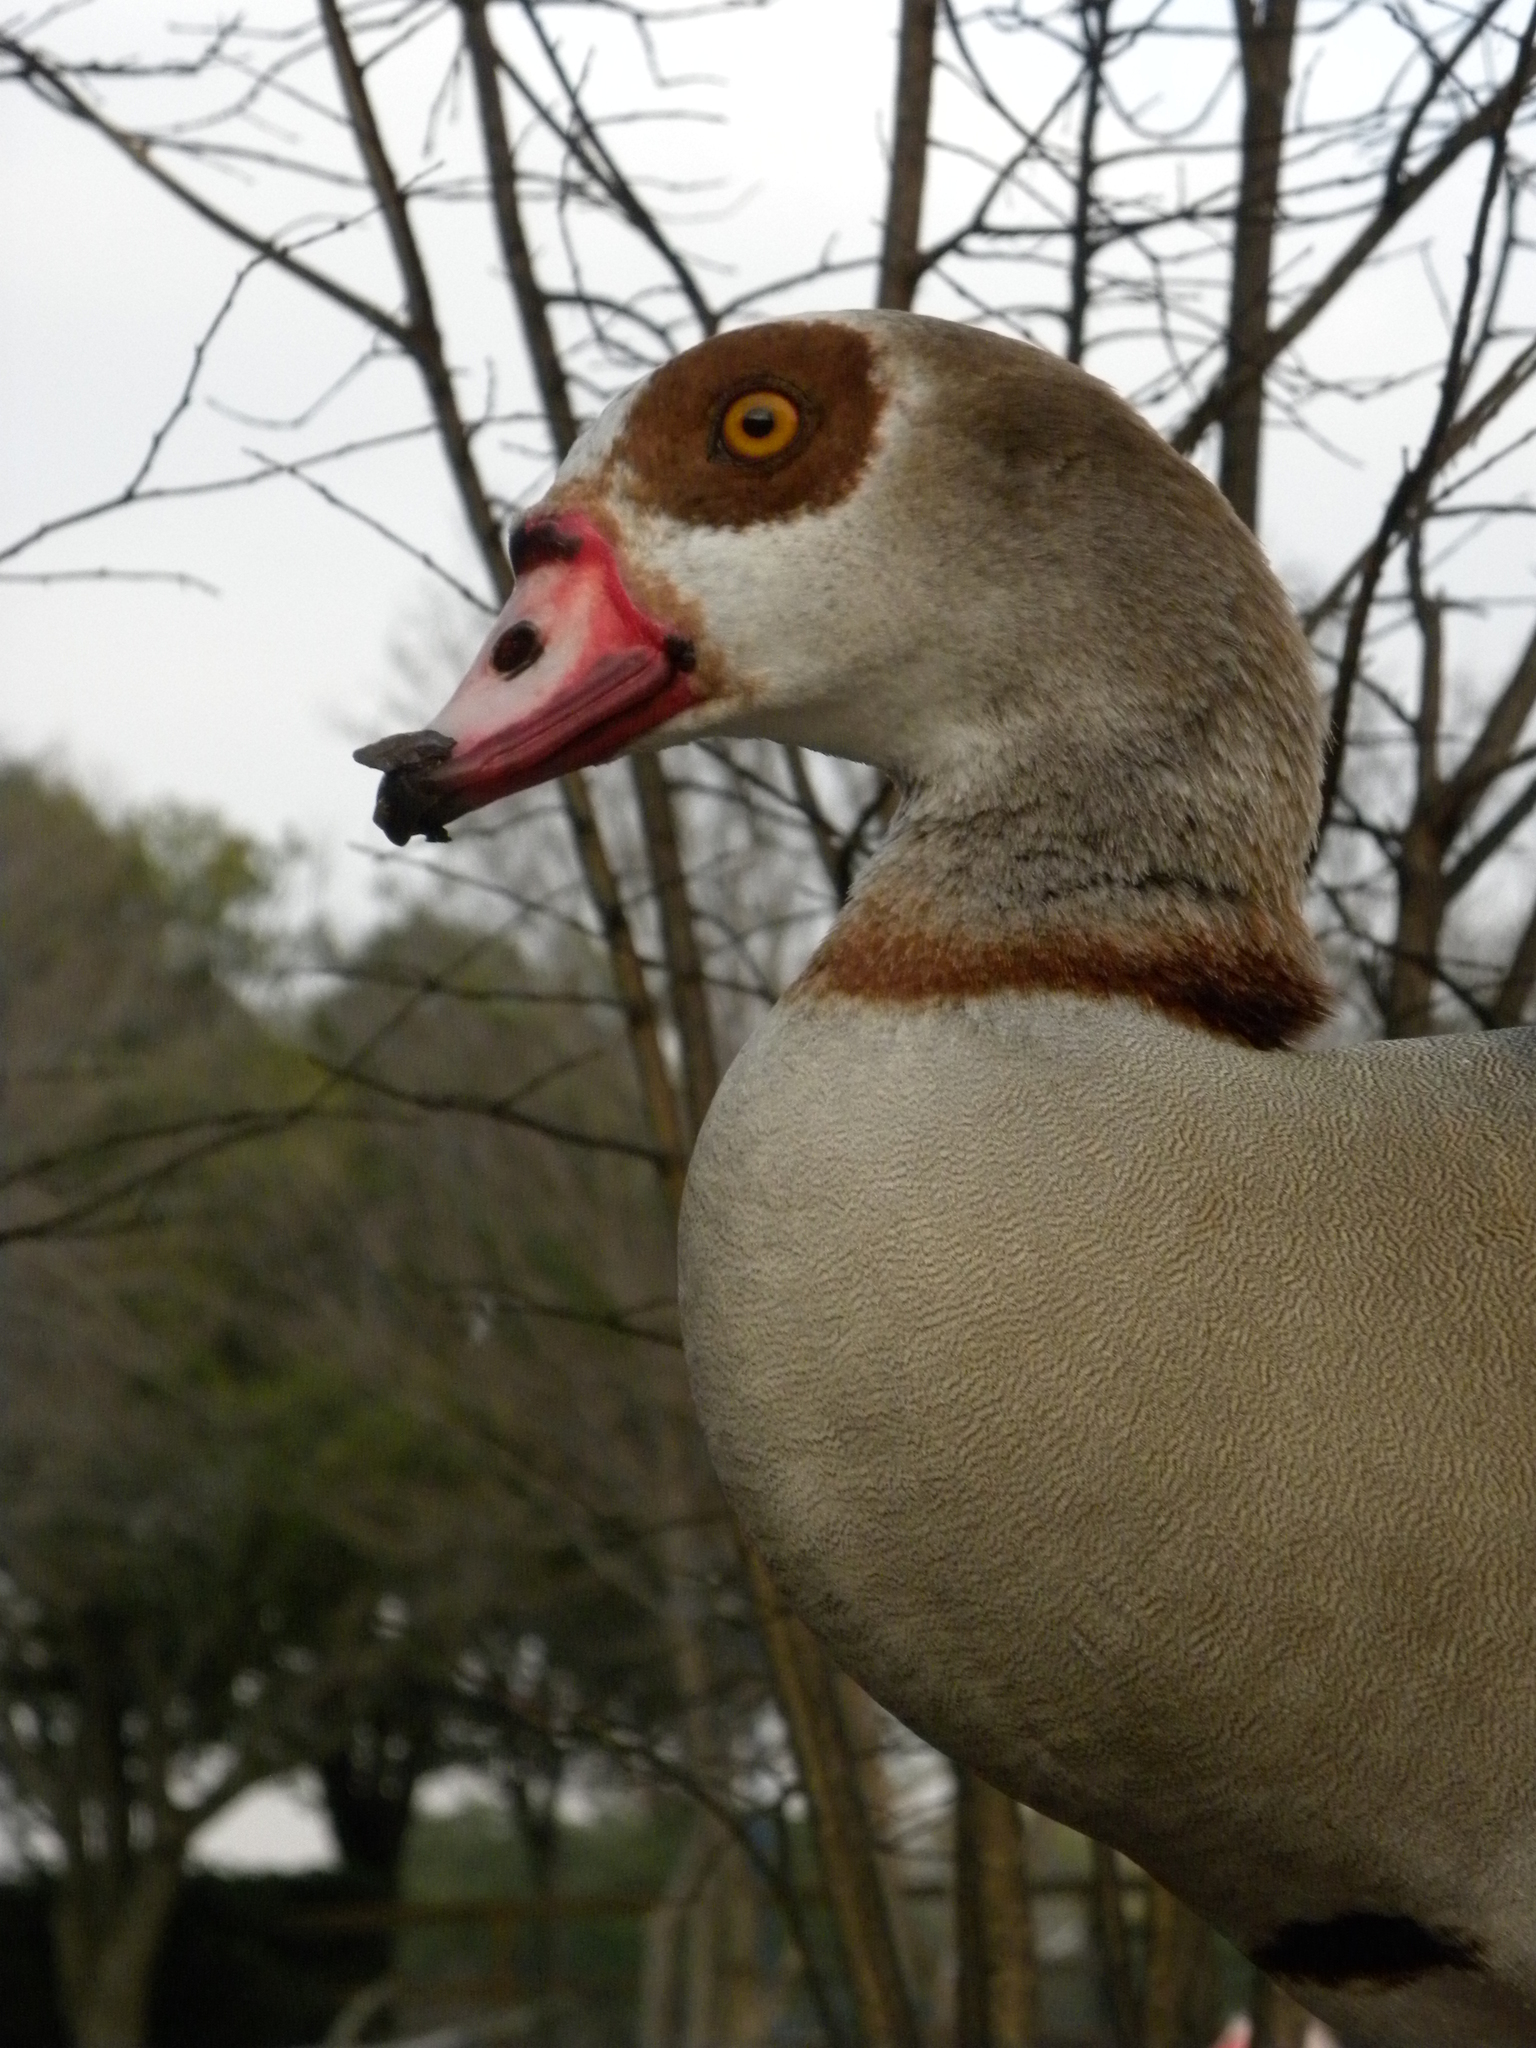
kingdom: Animalia
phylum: Chordata
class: Aves
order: Anseriformes
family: Anatidae
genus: Alopochen
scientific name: Alopochen aegyptiaca
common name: Egyptian goose
